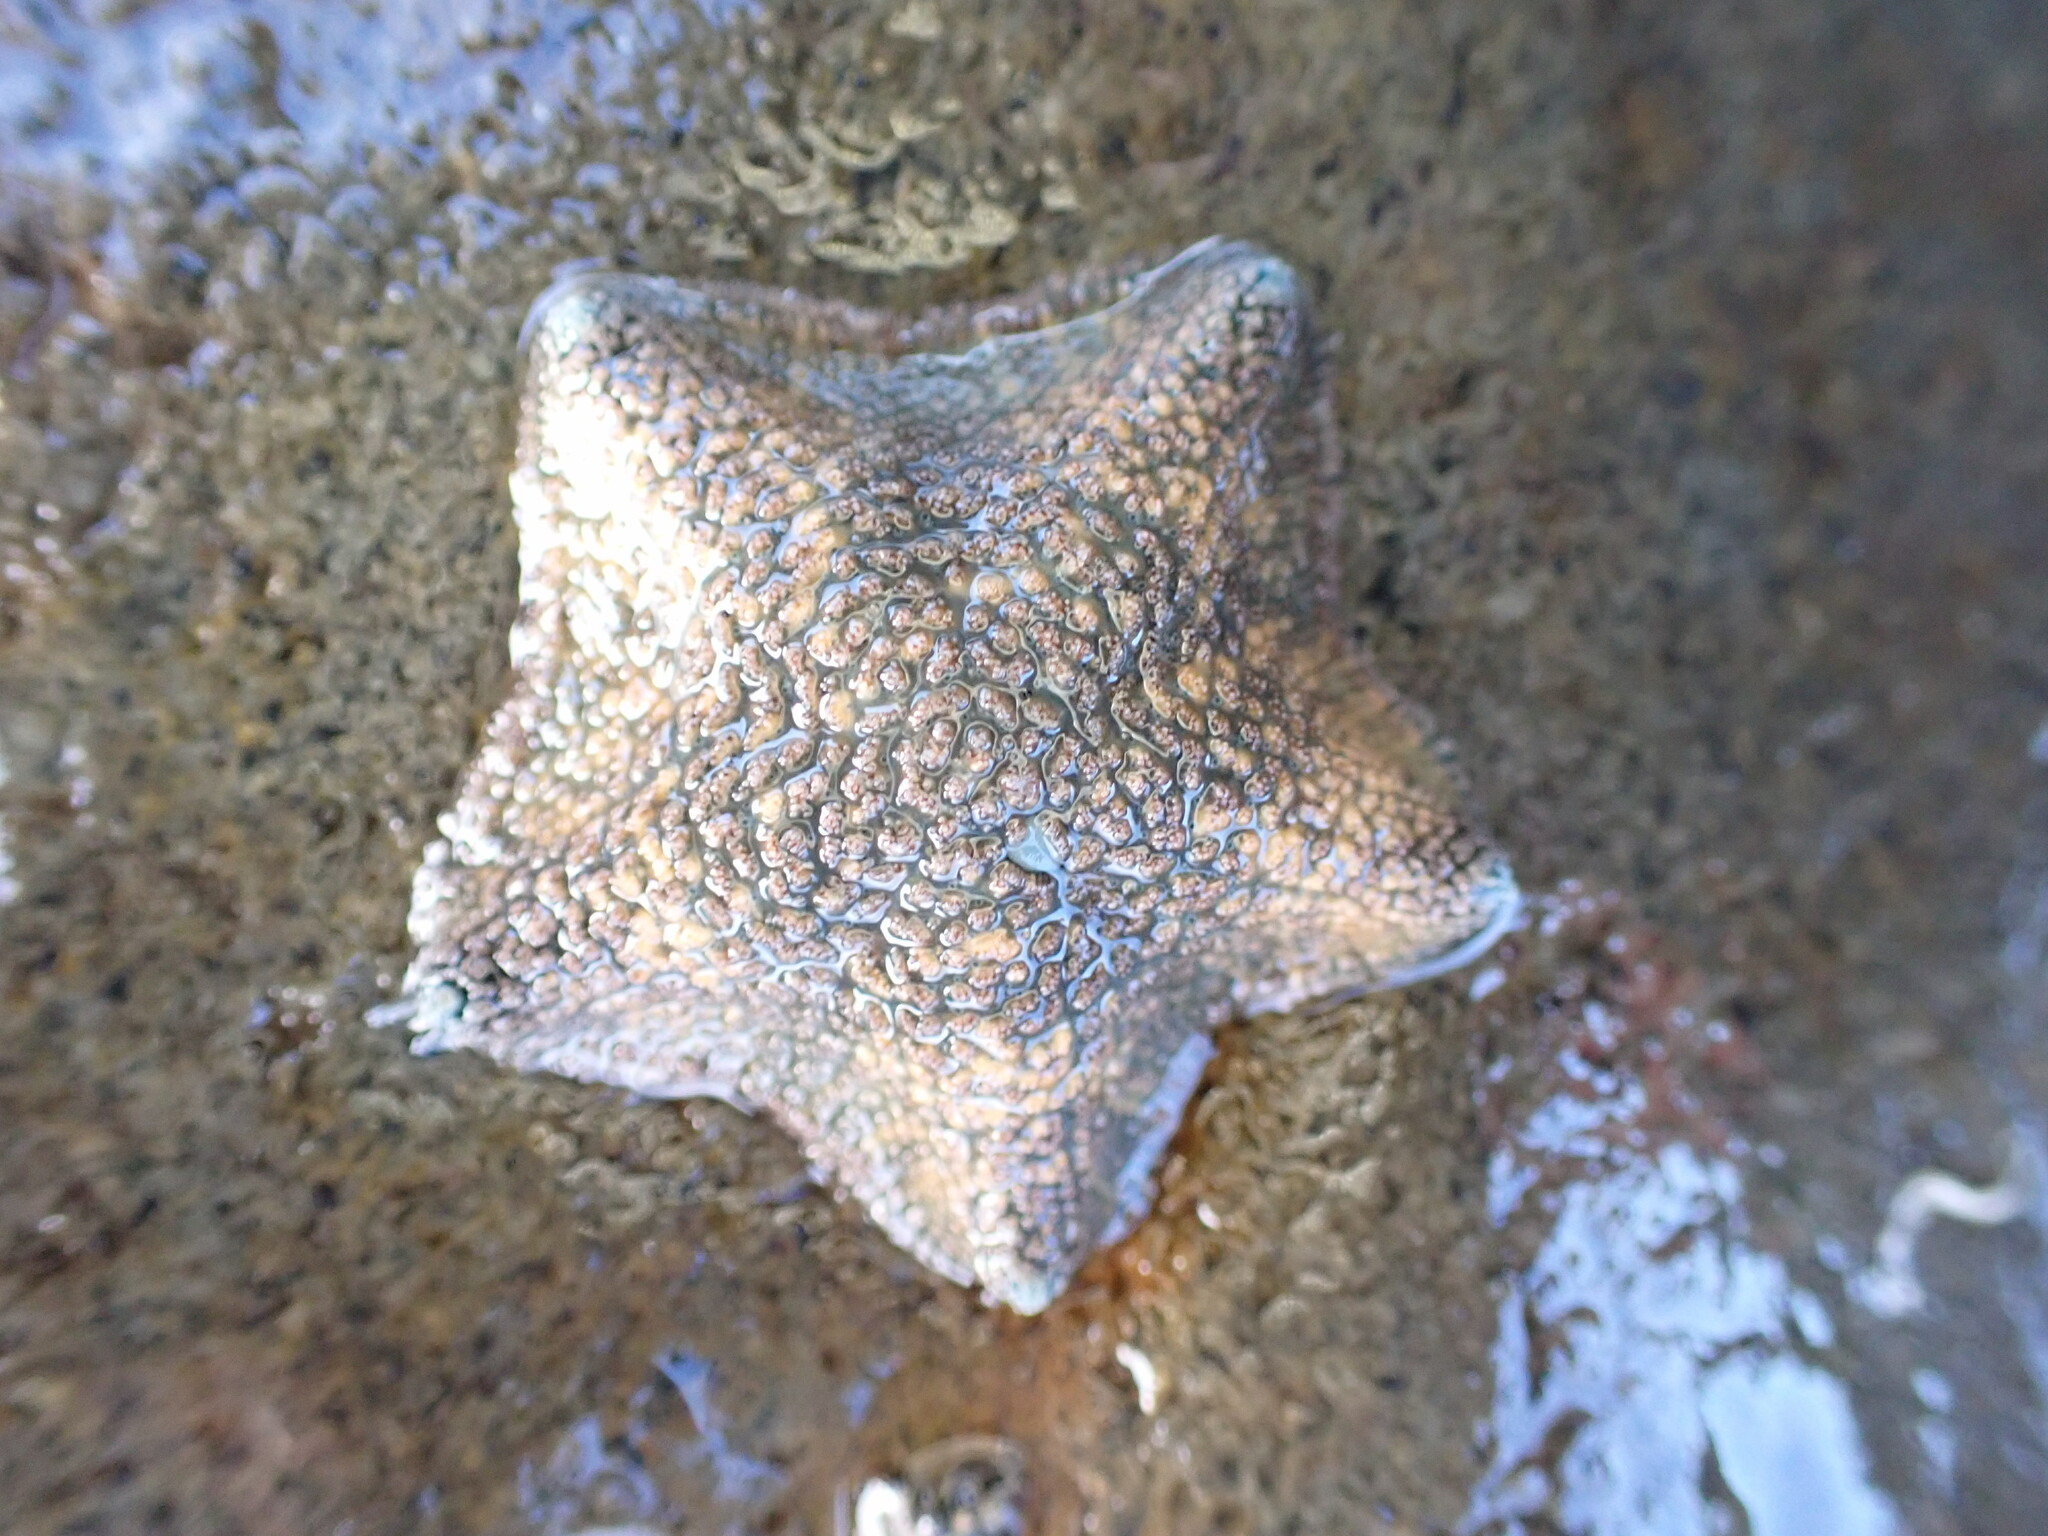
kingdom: Animalia
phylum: Echinodermata
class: Asteroidea
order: Valvatida
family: Asterinidae
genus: Patiriella
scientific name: Patiriella regularis
